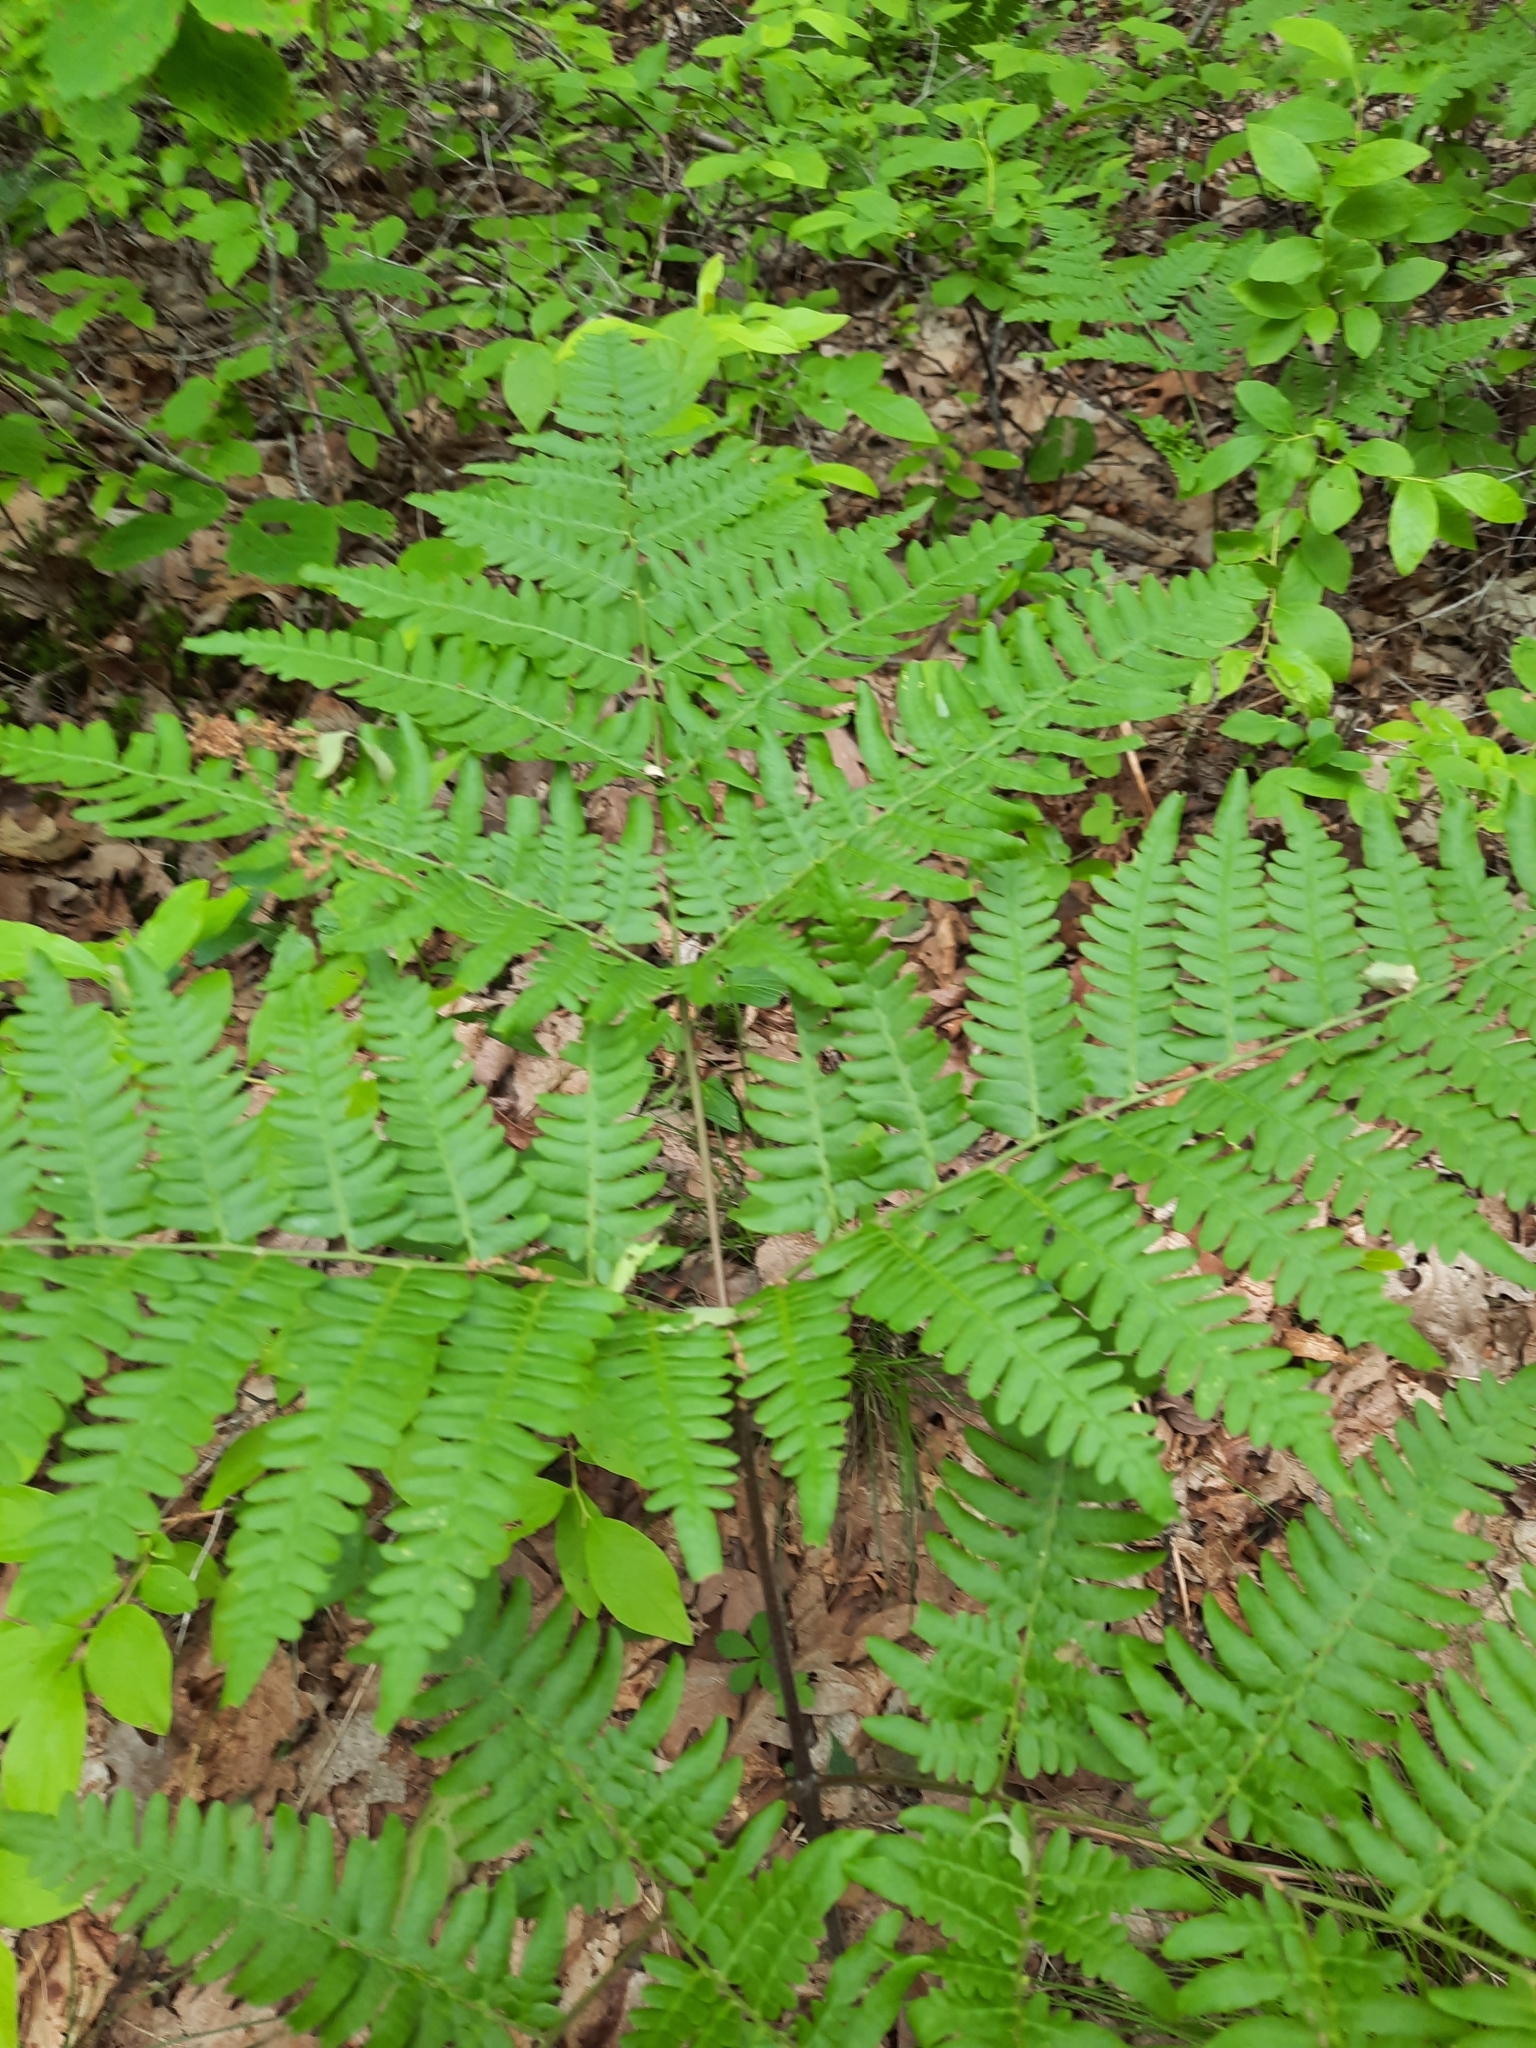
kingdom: Plantae
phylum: Tracheophyta
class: Polypodiopsida
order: Polypodiales
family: Dennstaedtiaceae
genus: Pteridium
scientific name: Pteridium aquilinum
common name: Bracken
